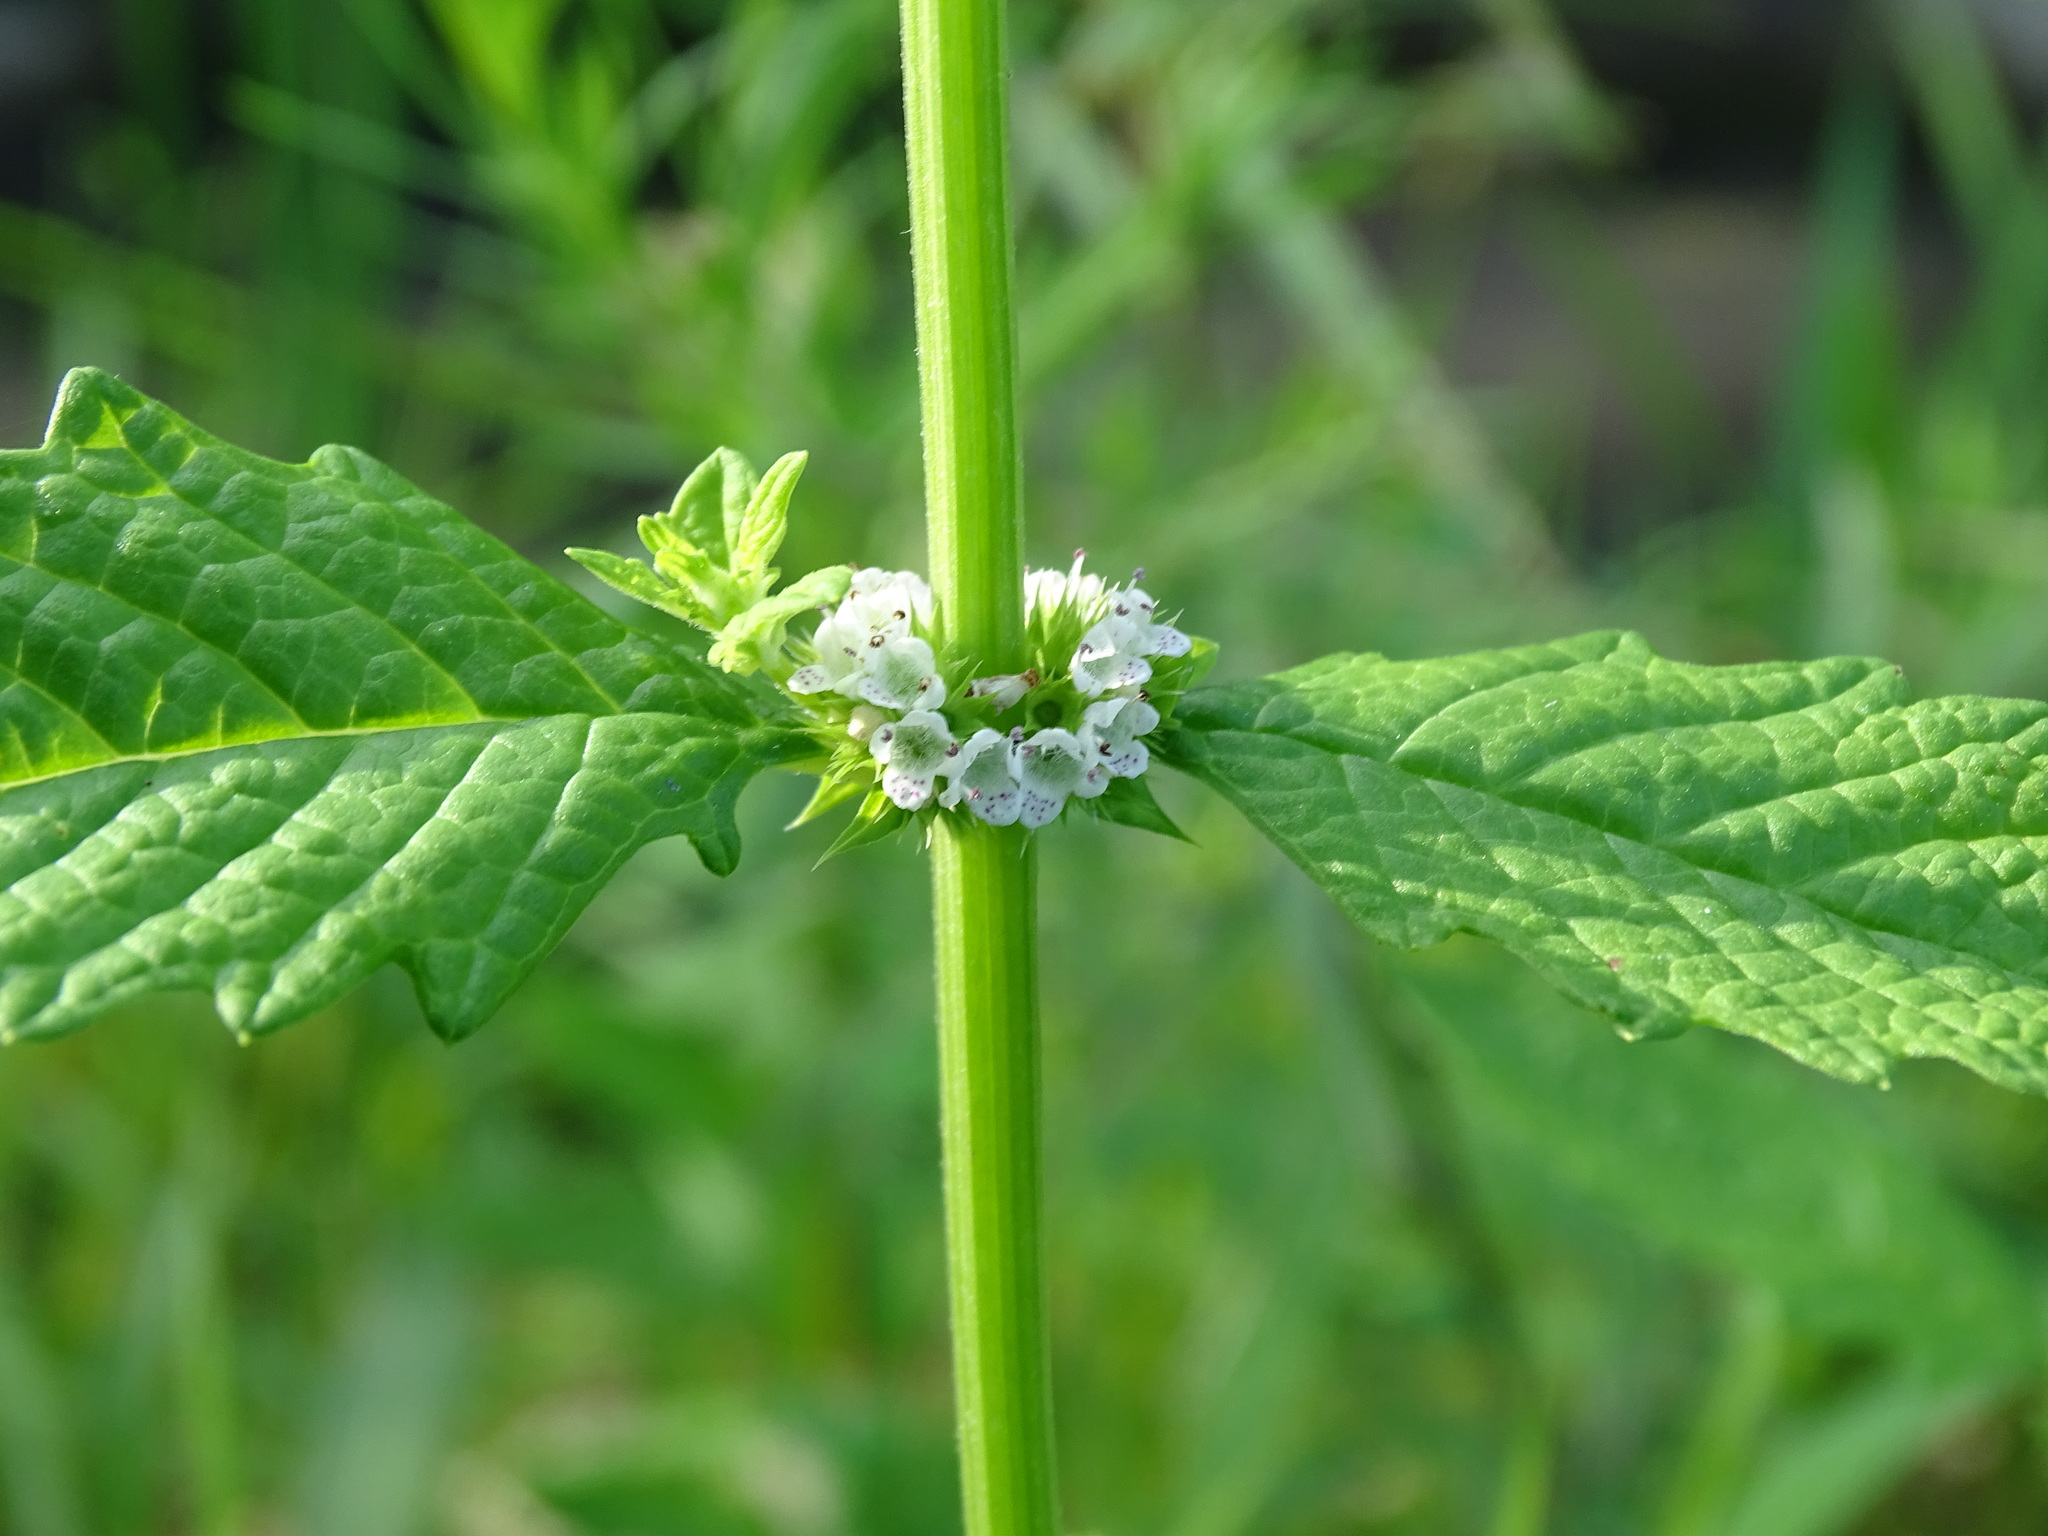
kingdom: Plantae
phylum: Tracheophyta
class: Magnoliopsida
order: Lamiales
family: Lamiaceae
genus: Lycopus
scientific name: Lycopus europaeus
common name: European bugleweed
